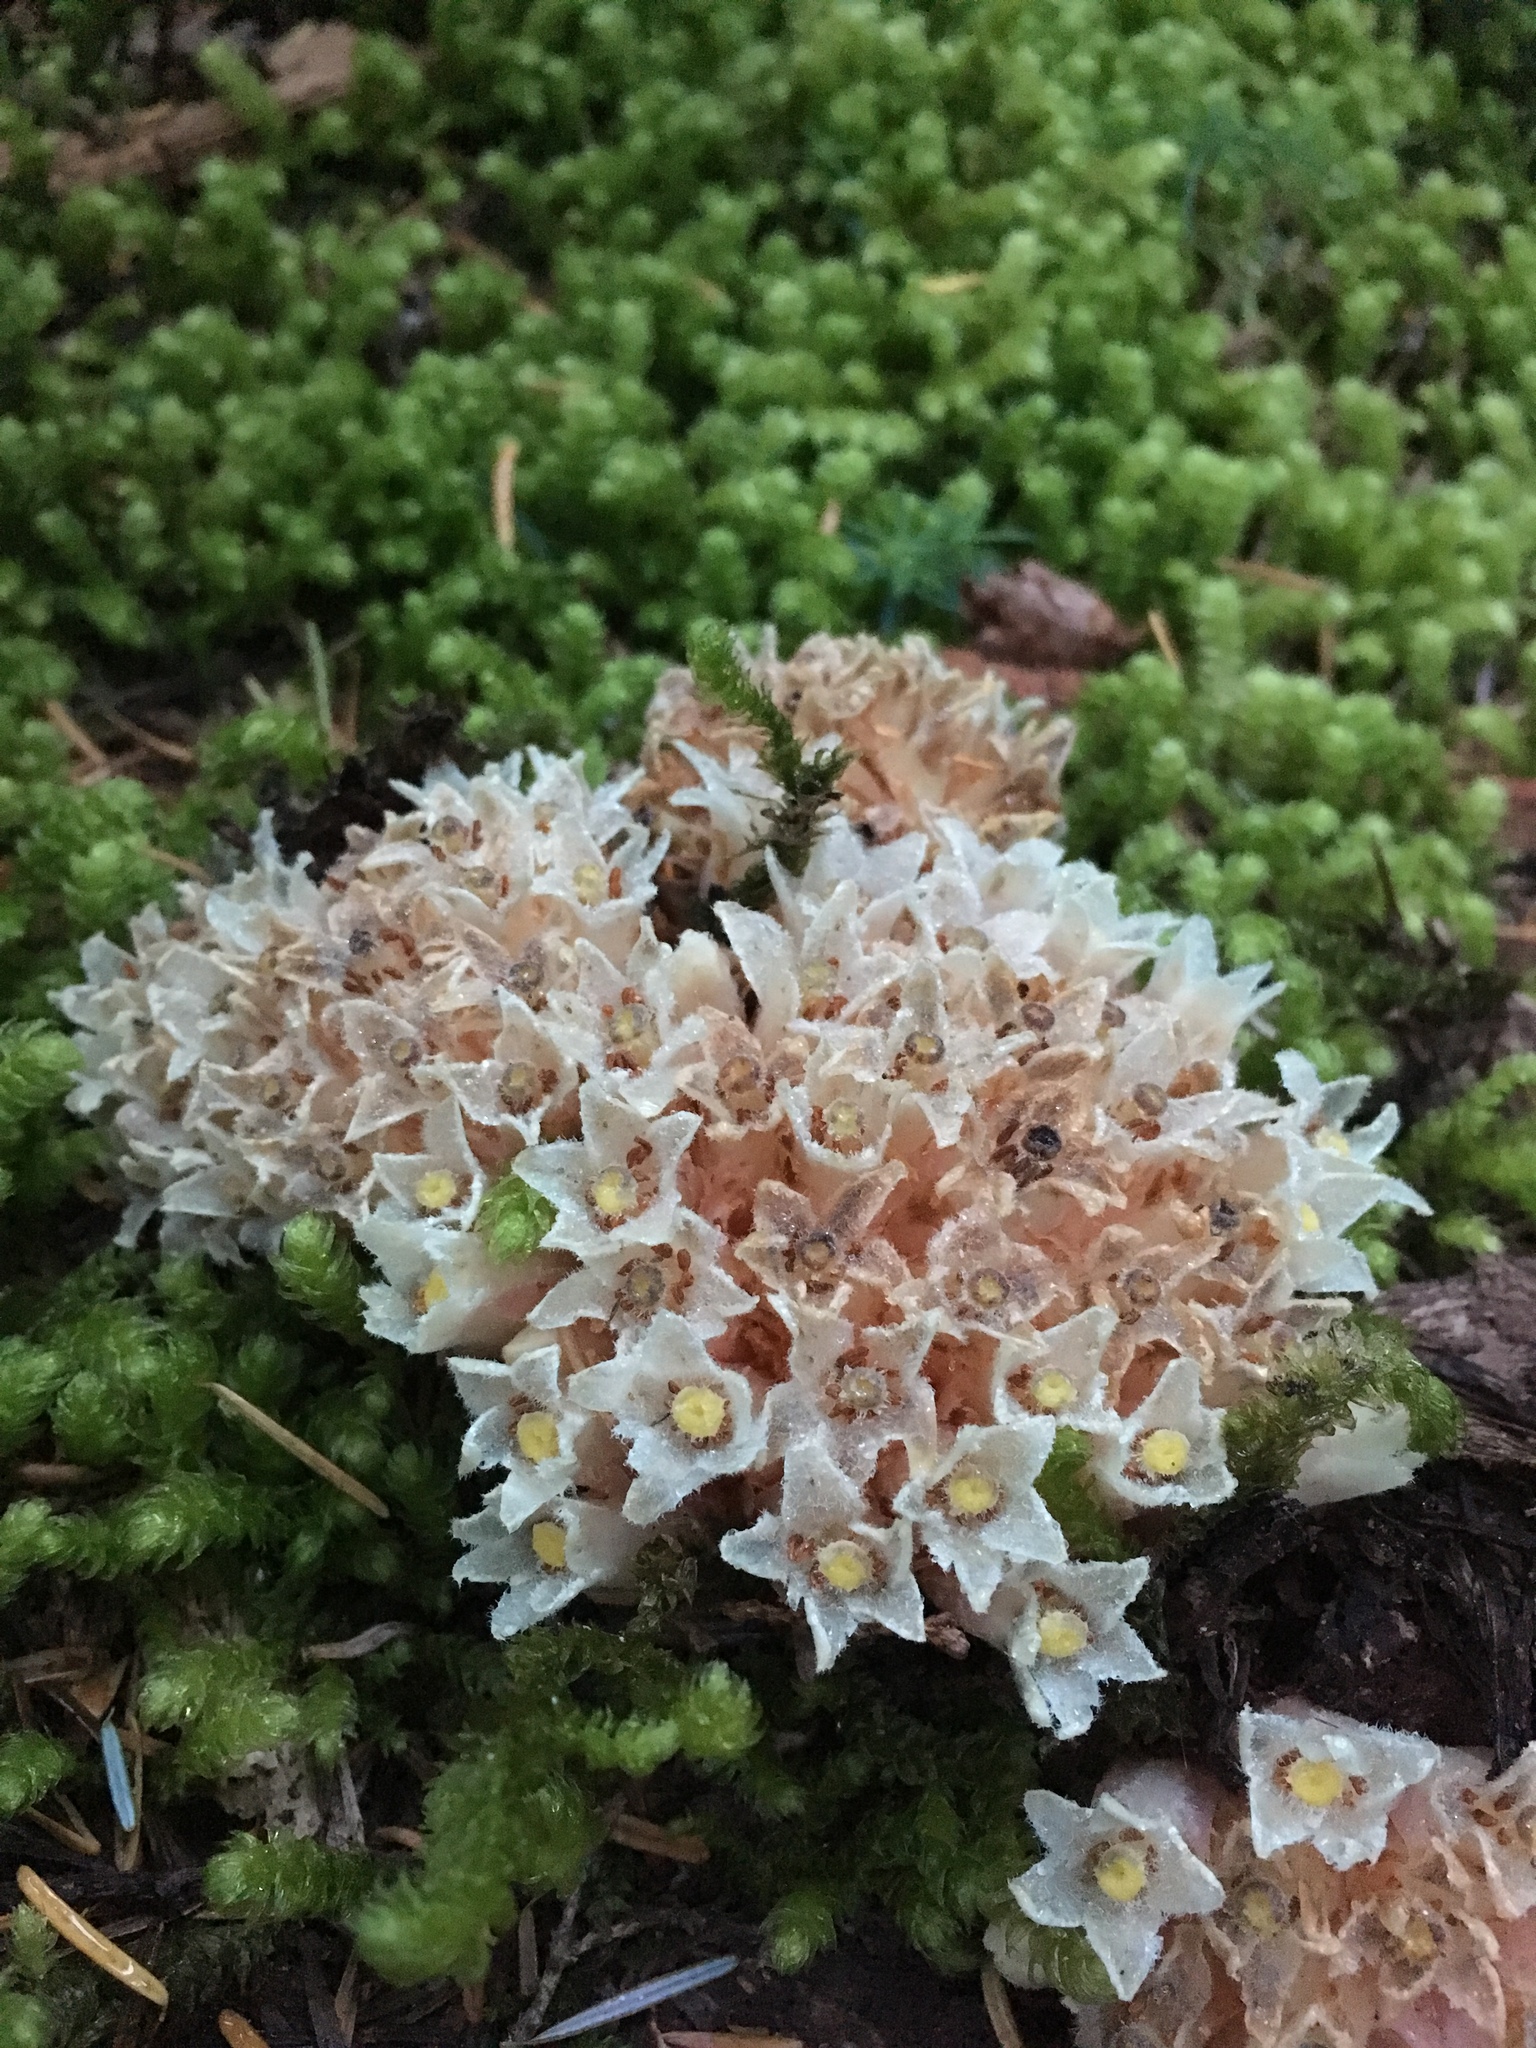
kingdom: Plantae
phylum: Tracheophyta
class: Magnoliopsida
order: Ericales
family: Ericaceae
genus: Hemitomes
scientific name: Hemitomes congestum
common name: Cone plant
